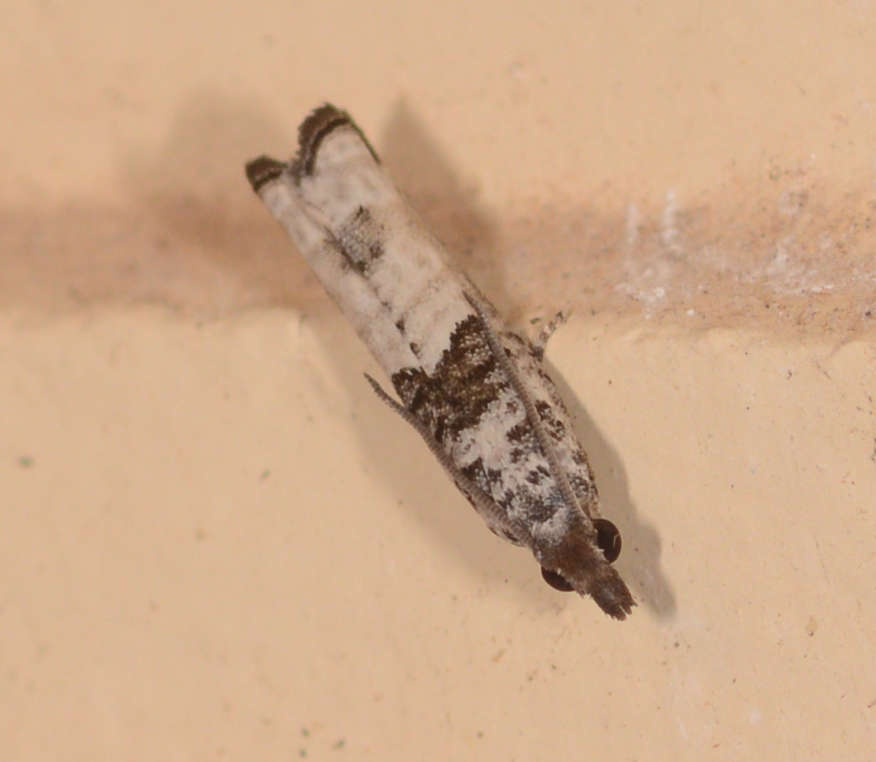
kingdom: Animalia
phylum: Arthropoda
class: Insecta
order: Lepidoptera
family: Tortricidae
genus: Spilonota
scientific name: Spilonota constrictana
